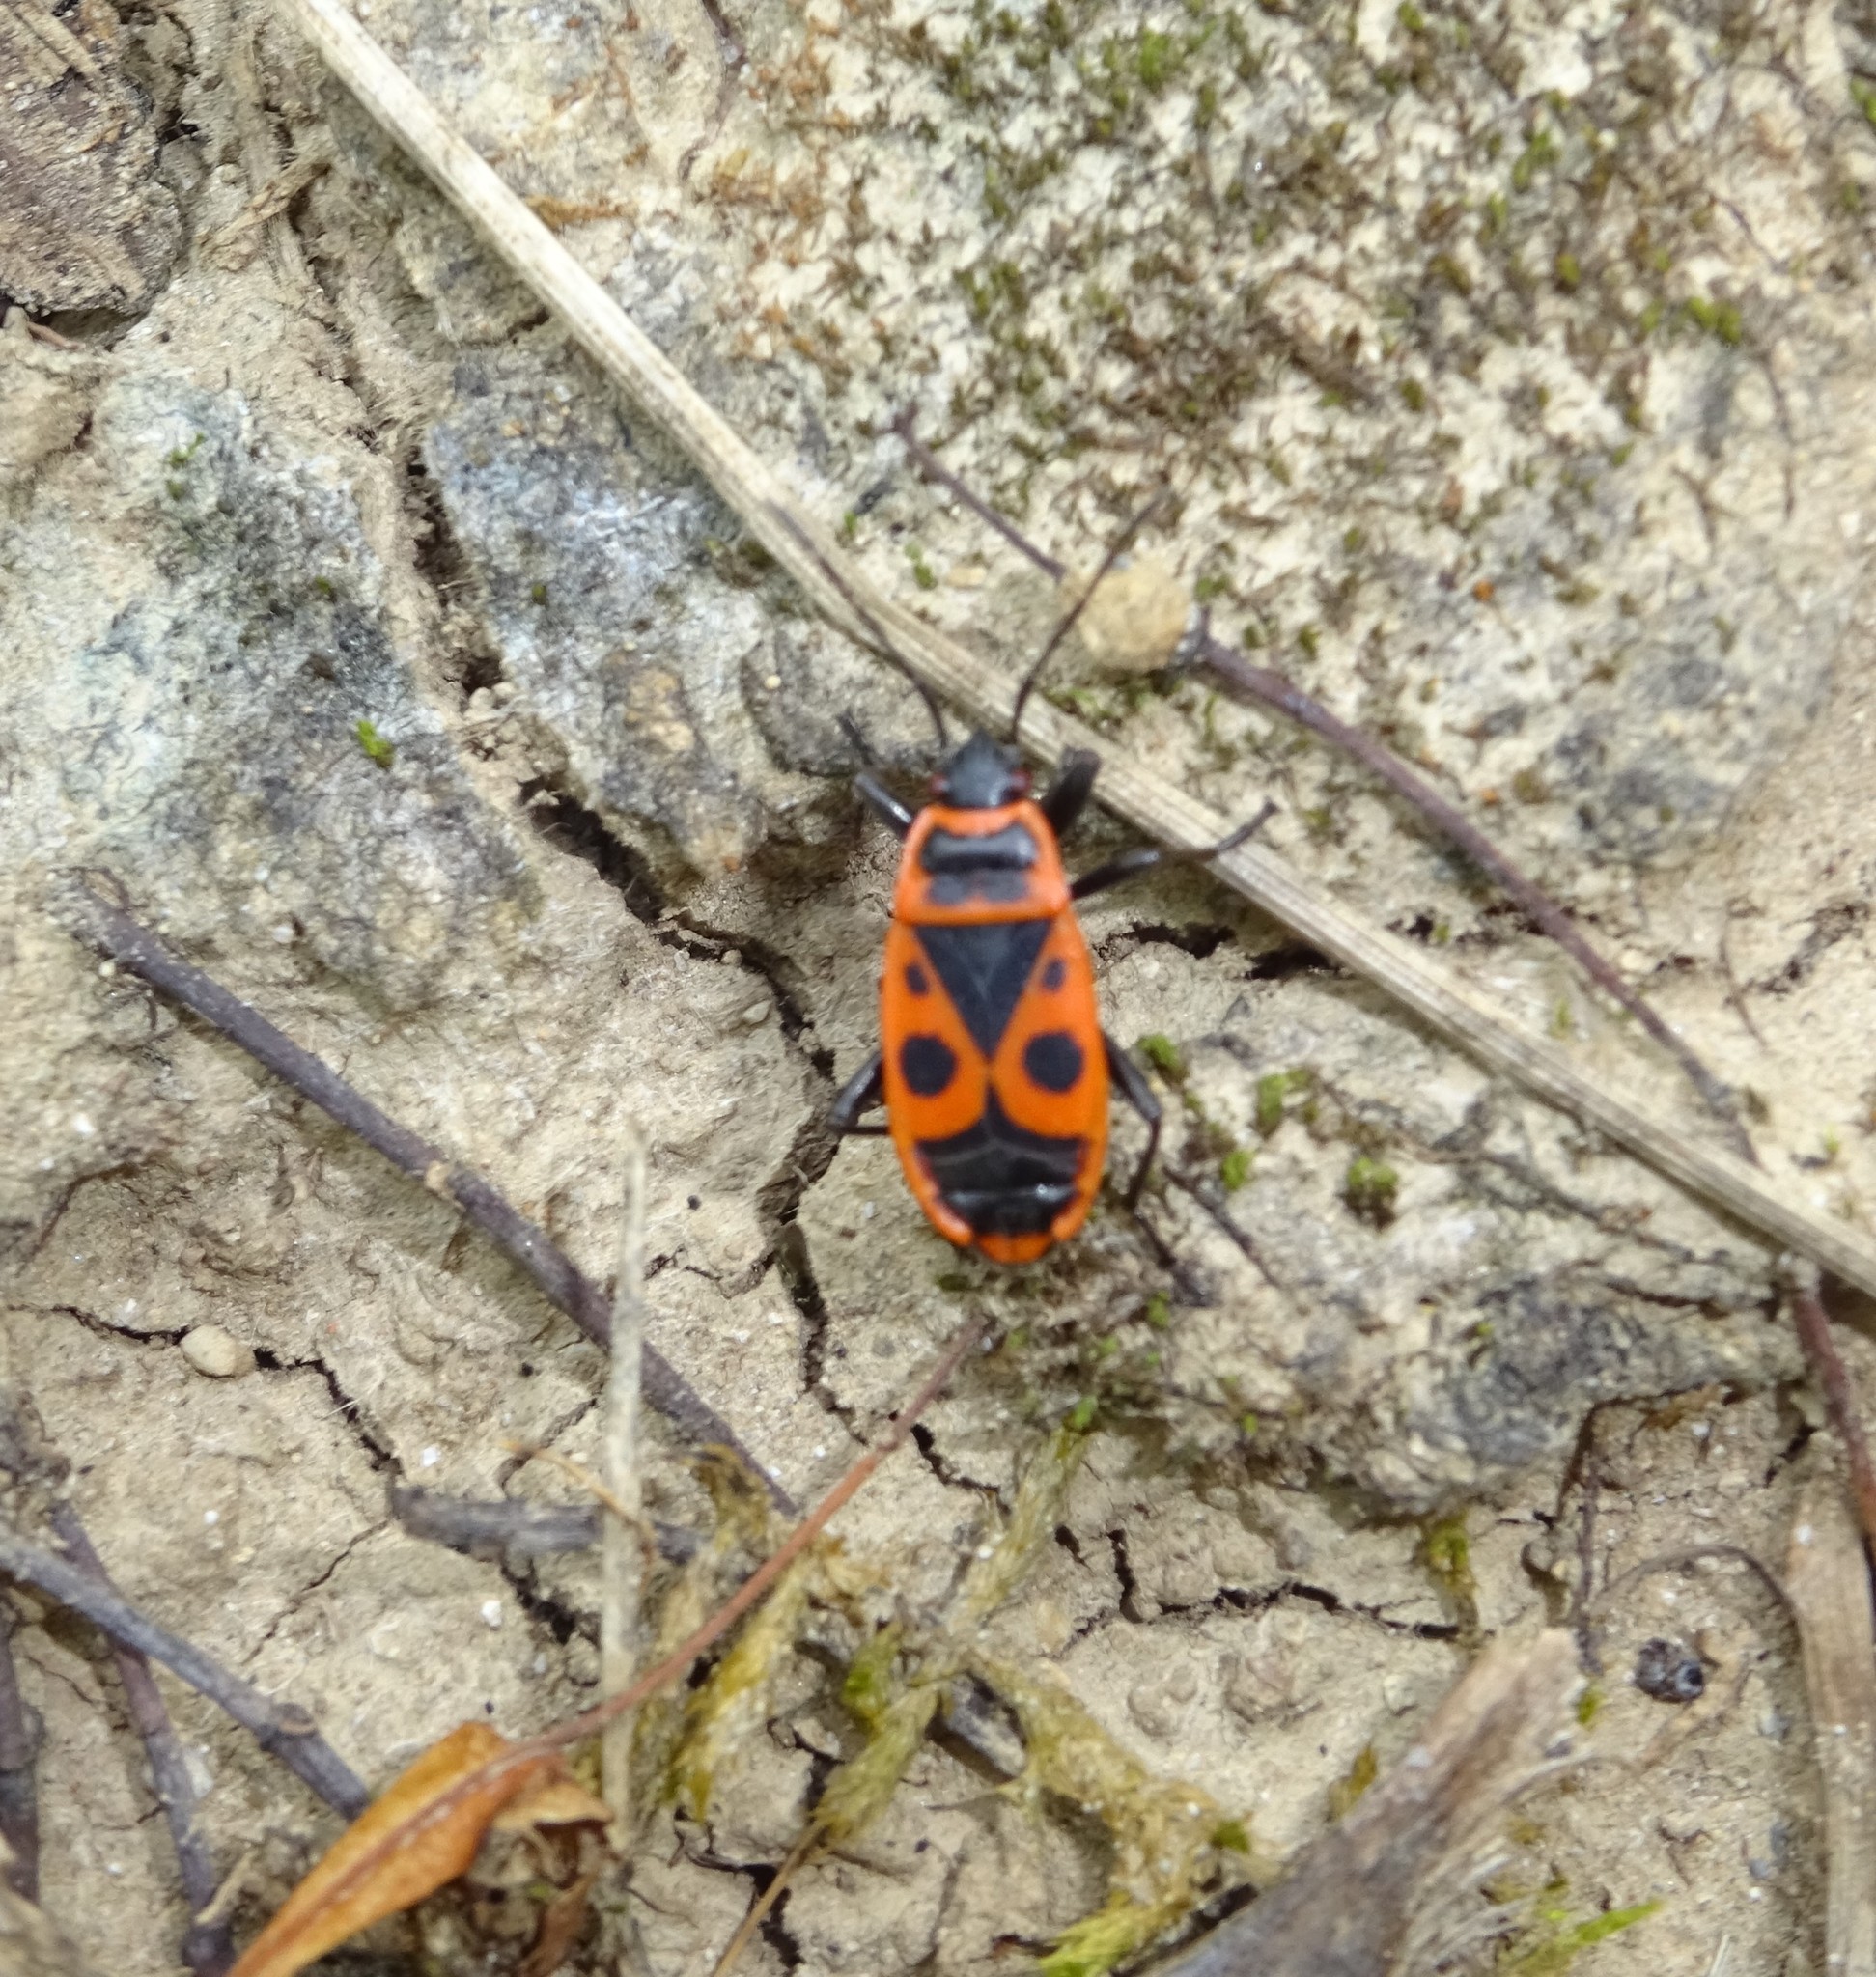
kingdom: Animalia
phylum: Arthropoda
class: Insecta
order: Hemiptera
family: Pyrrhocoridae
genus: Pyrrhocoris
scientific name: Pyrrhocoris apterus
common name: Firebug
